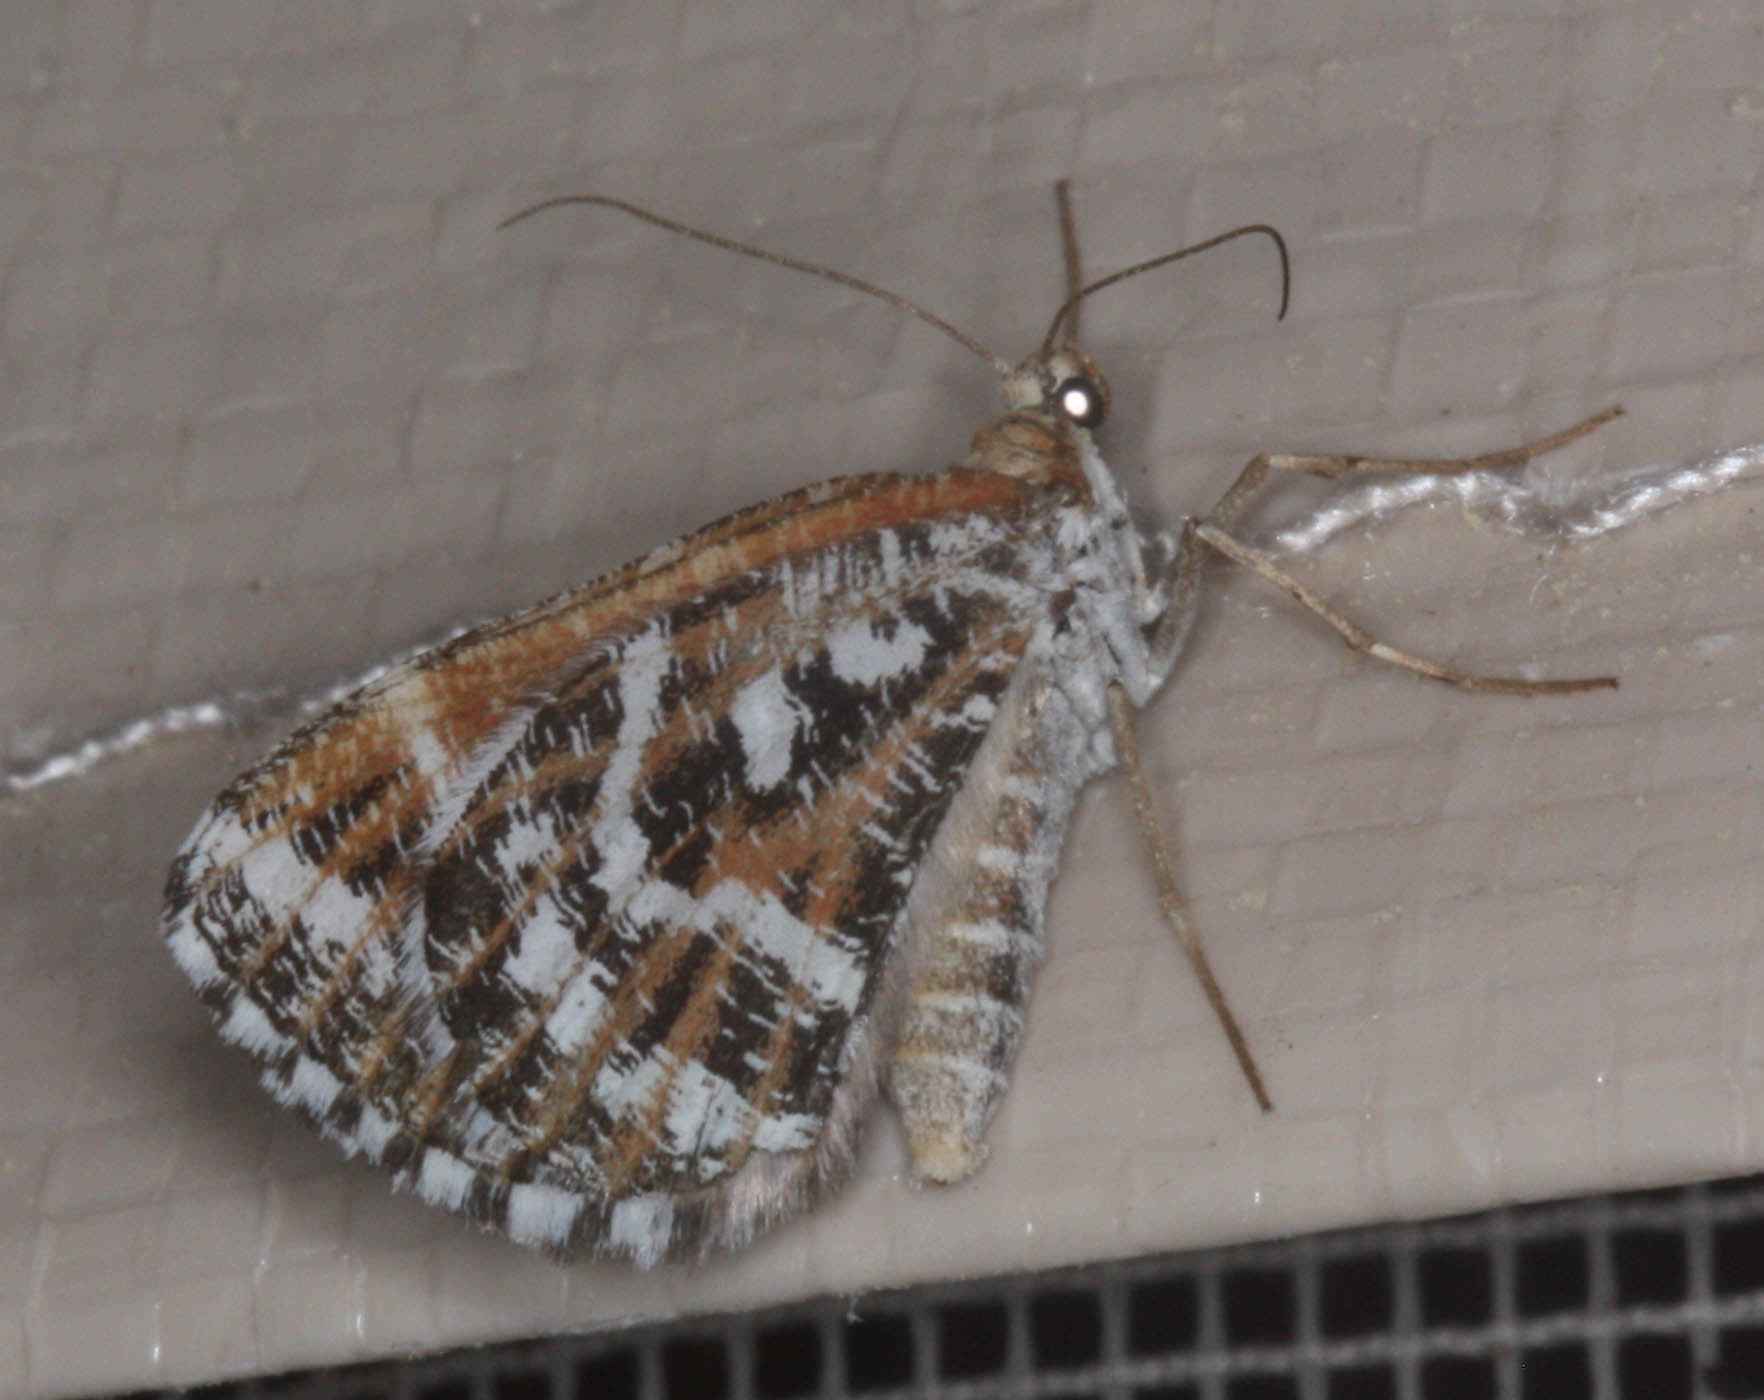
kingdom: Animalia
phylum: Arthropoda
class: Insecta
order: Lepidoptera
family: Geometridae
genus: Stamnodes
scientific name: Stamnodes marmorata
